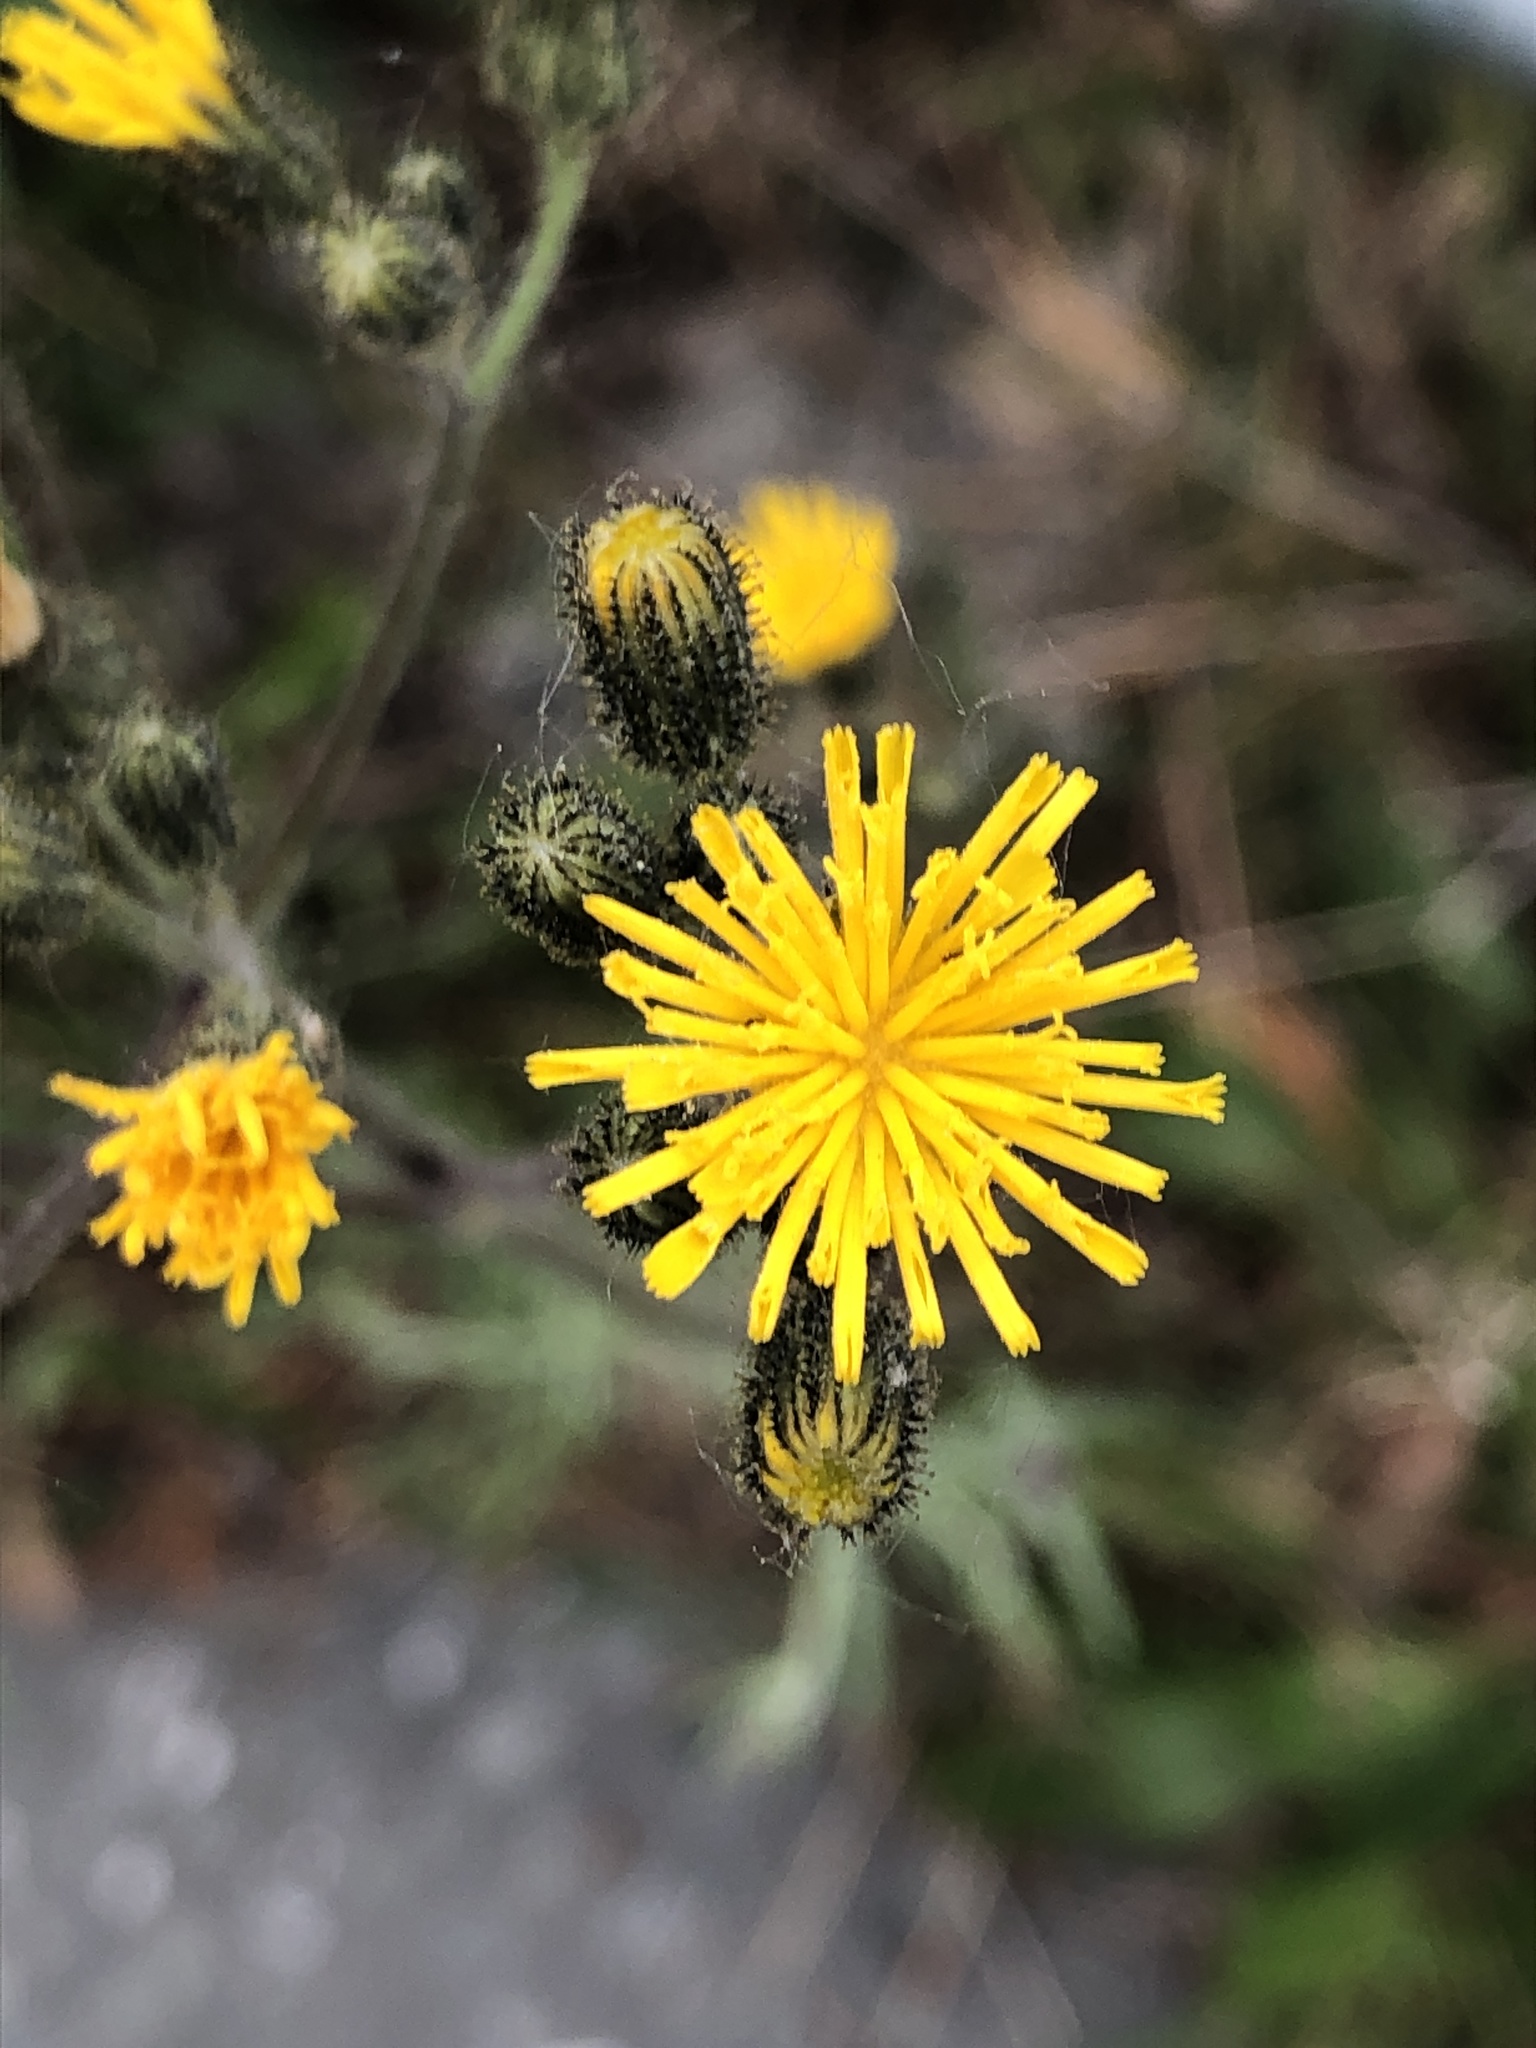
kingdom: Plantae
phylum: Tracheophyta
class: Magnoliopsida
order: Asterales
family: Asteraceae
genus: Pilosella
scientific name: Pilosella caespitosa
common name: Yellow fox-and-cubs
